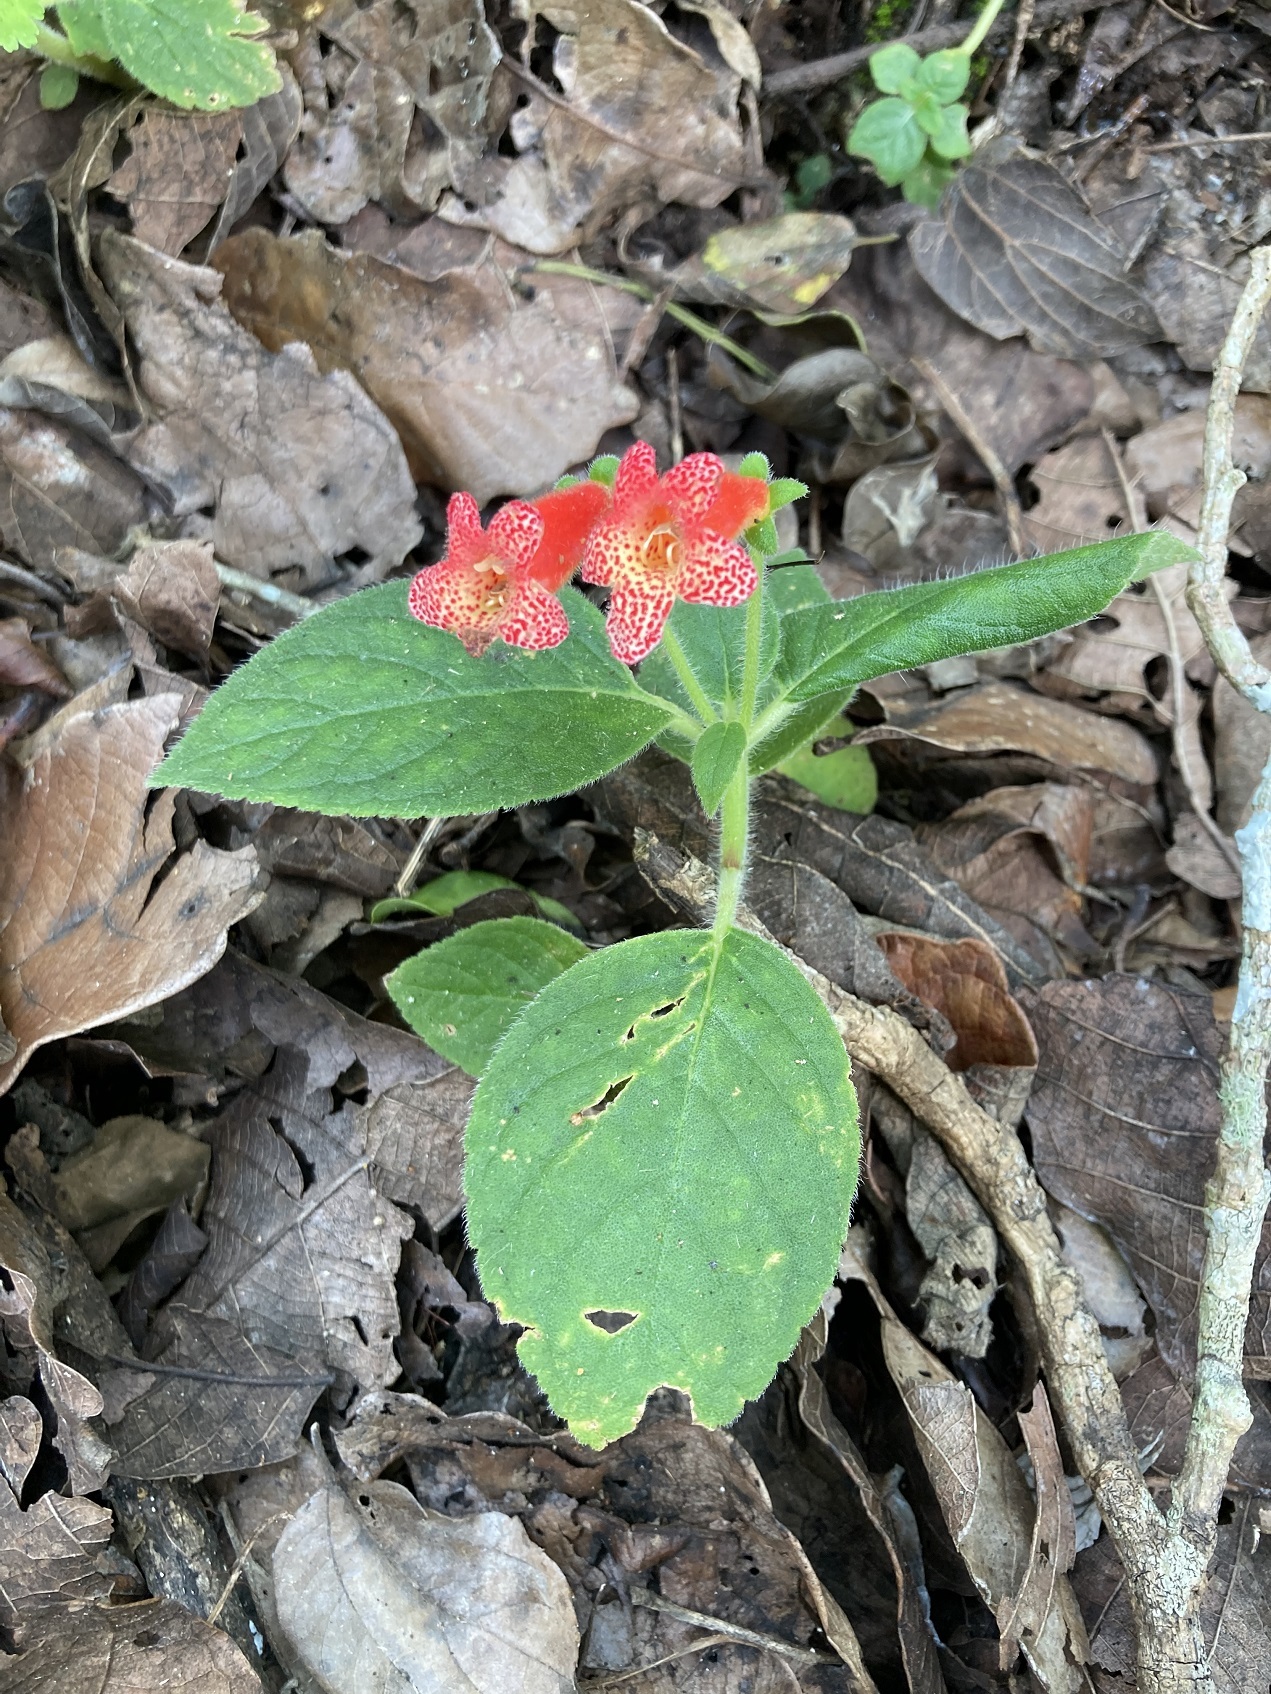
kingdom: Plantae
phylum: Tracheophyta
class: Magnoliopsida
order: Lamiales
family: Gesneriaceae
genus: Kohleria
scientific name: Kohleria rugata
